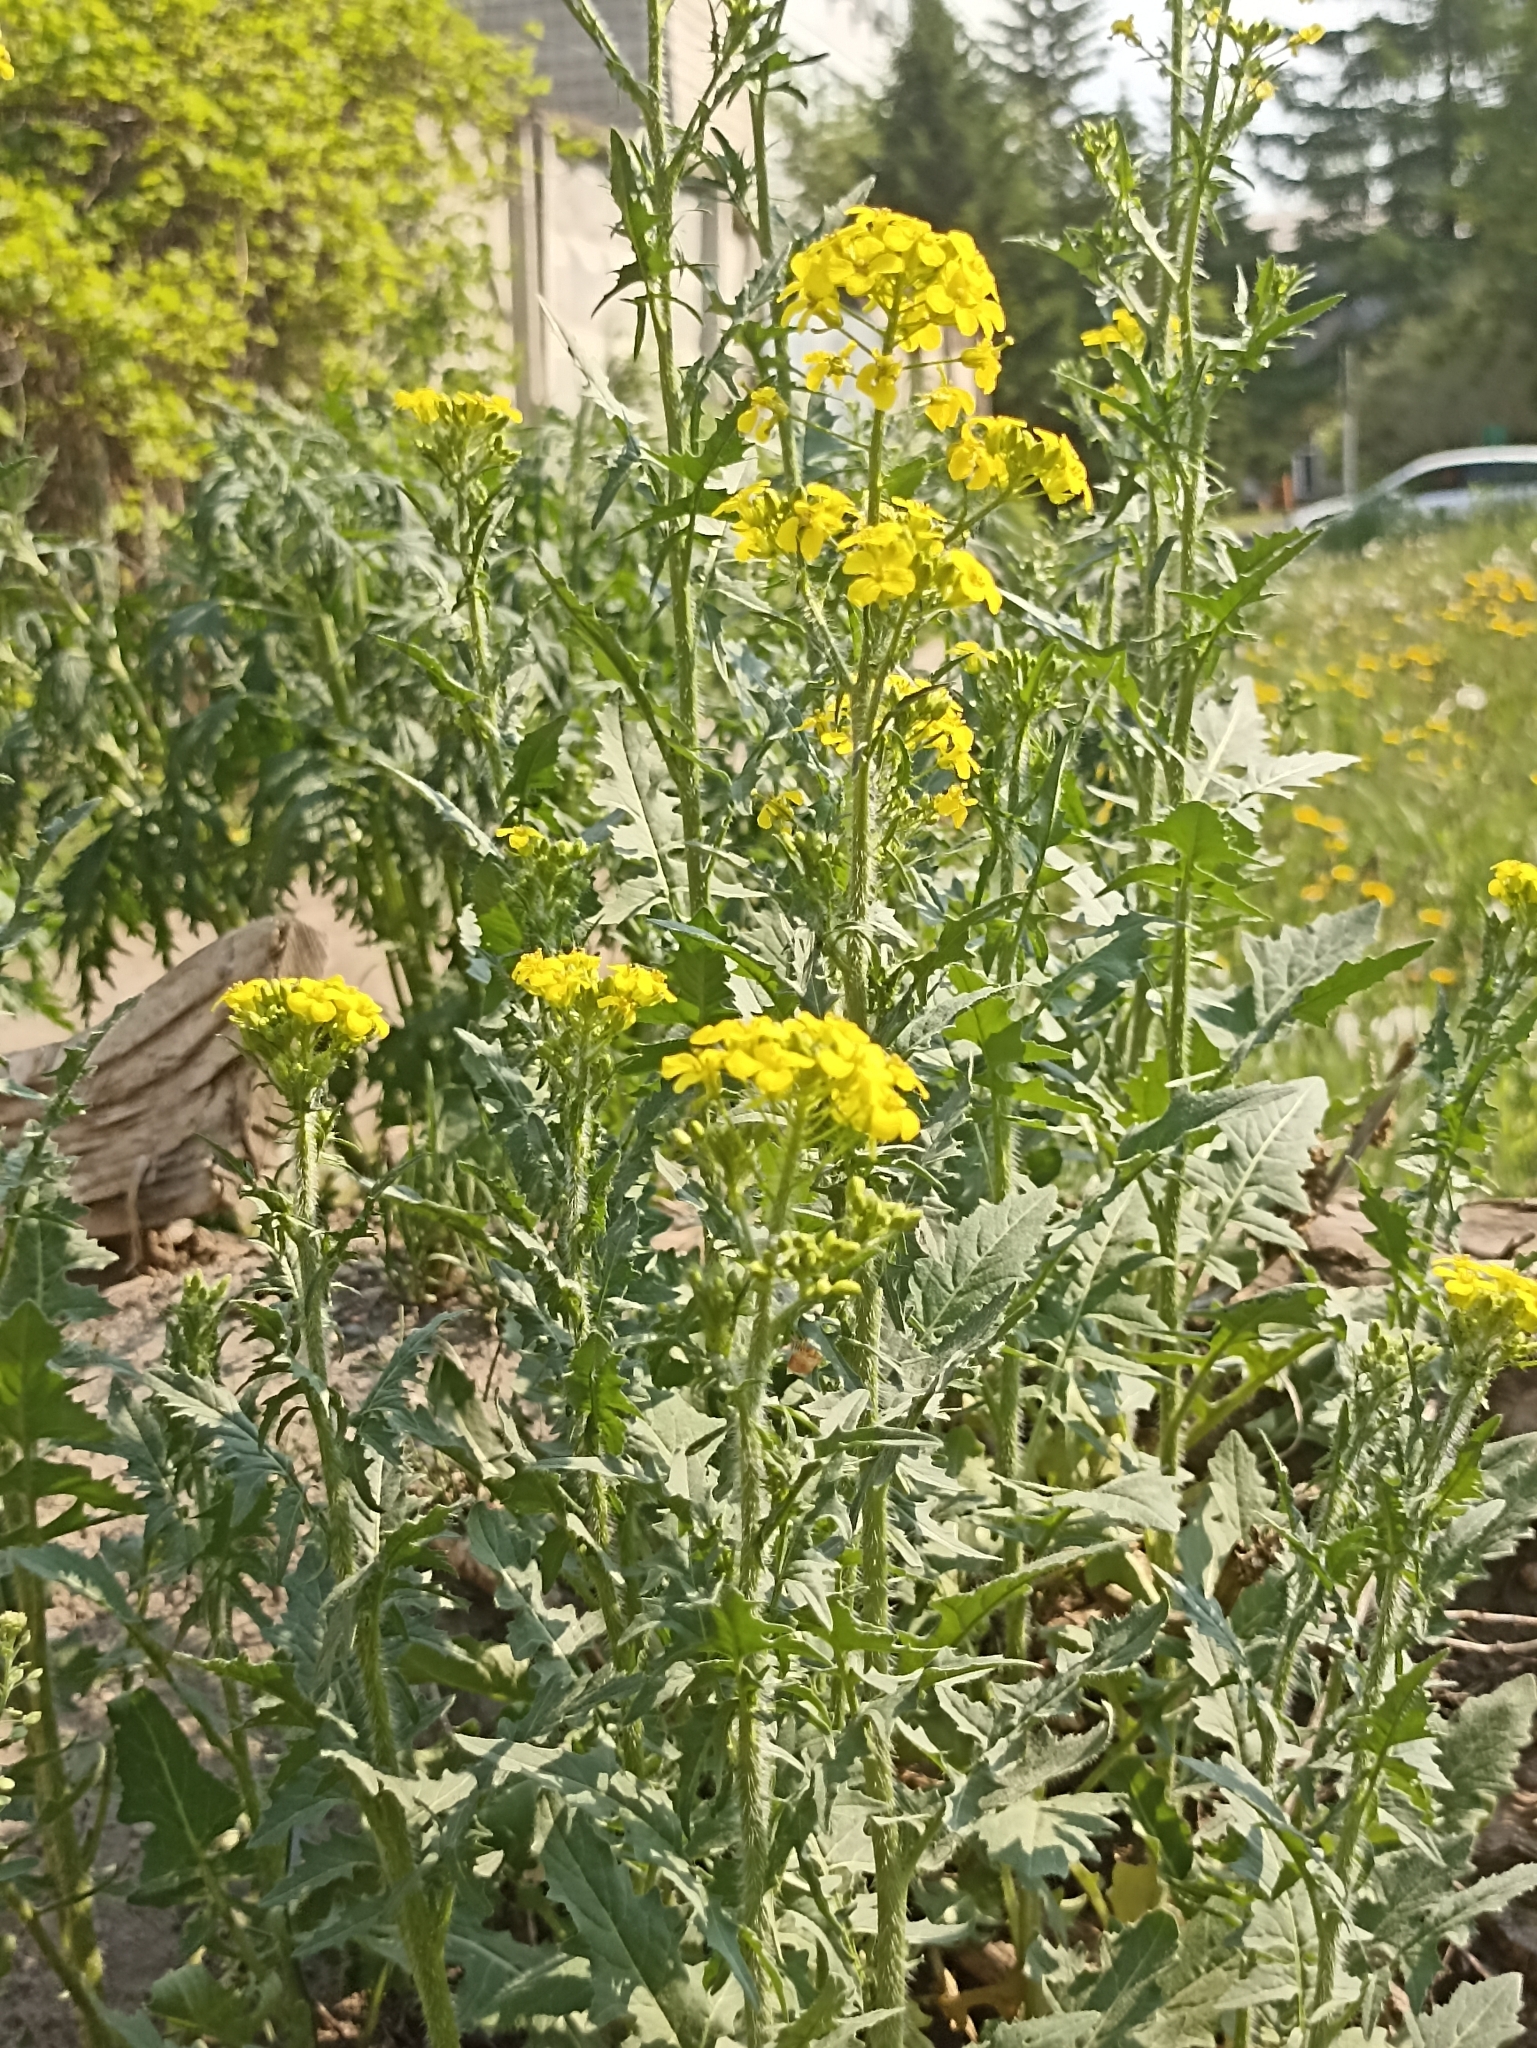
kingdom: Plantae
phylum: Tracheophyta
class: Magnoliopsida
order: Brassicales
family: Brassicaceae
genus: Sisymbrium
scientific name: Sisymbrium loeselii
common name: False london-rocket
